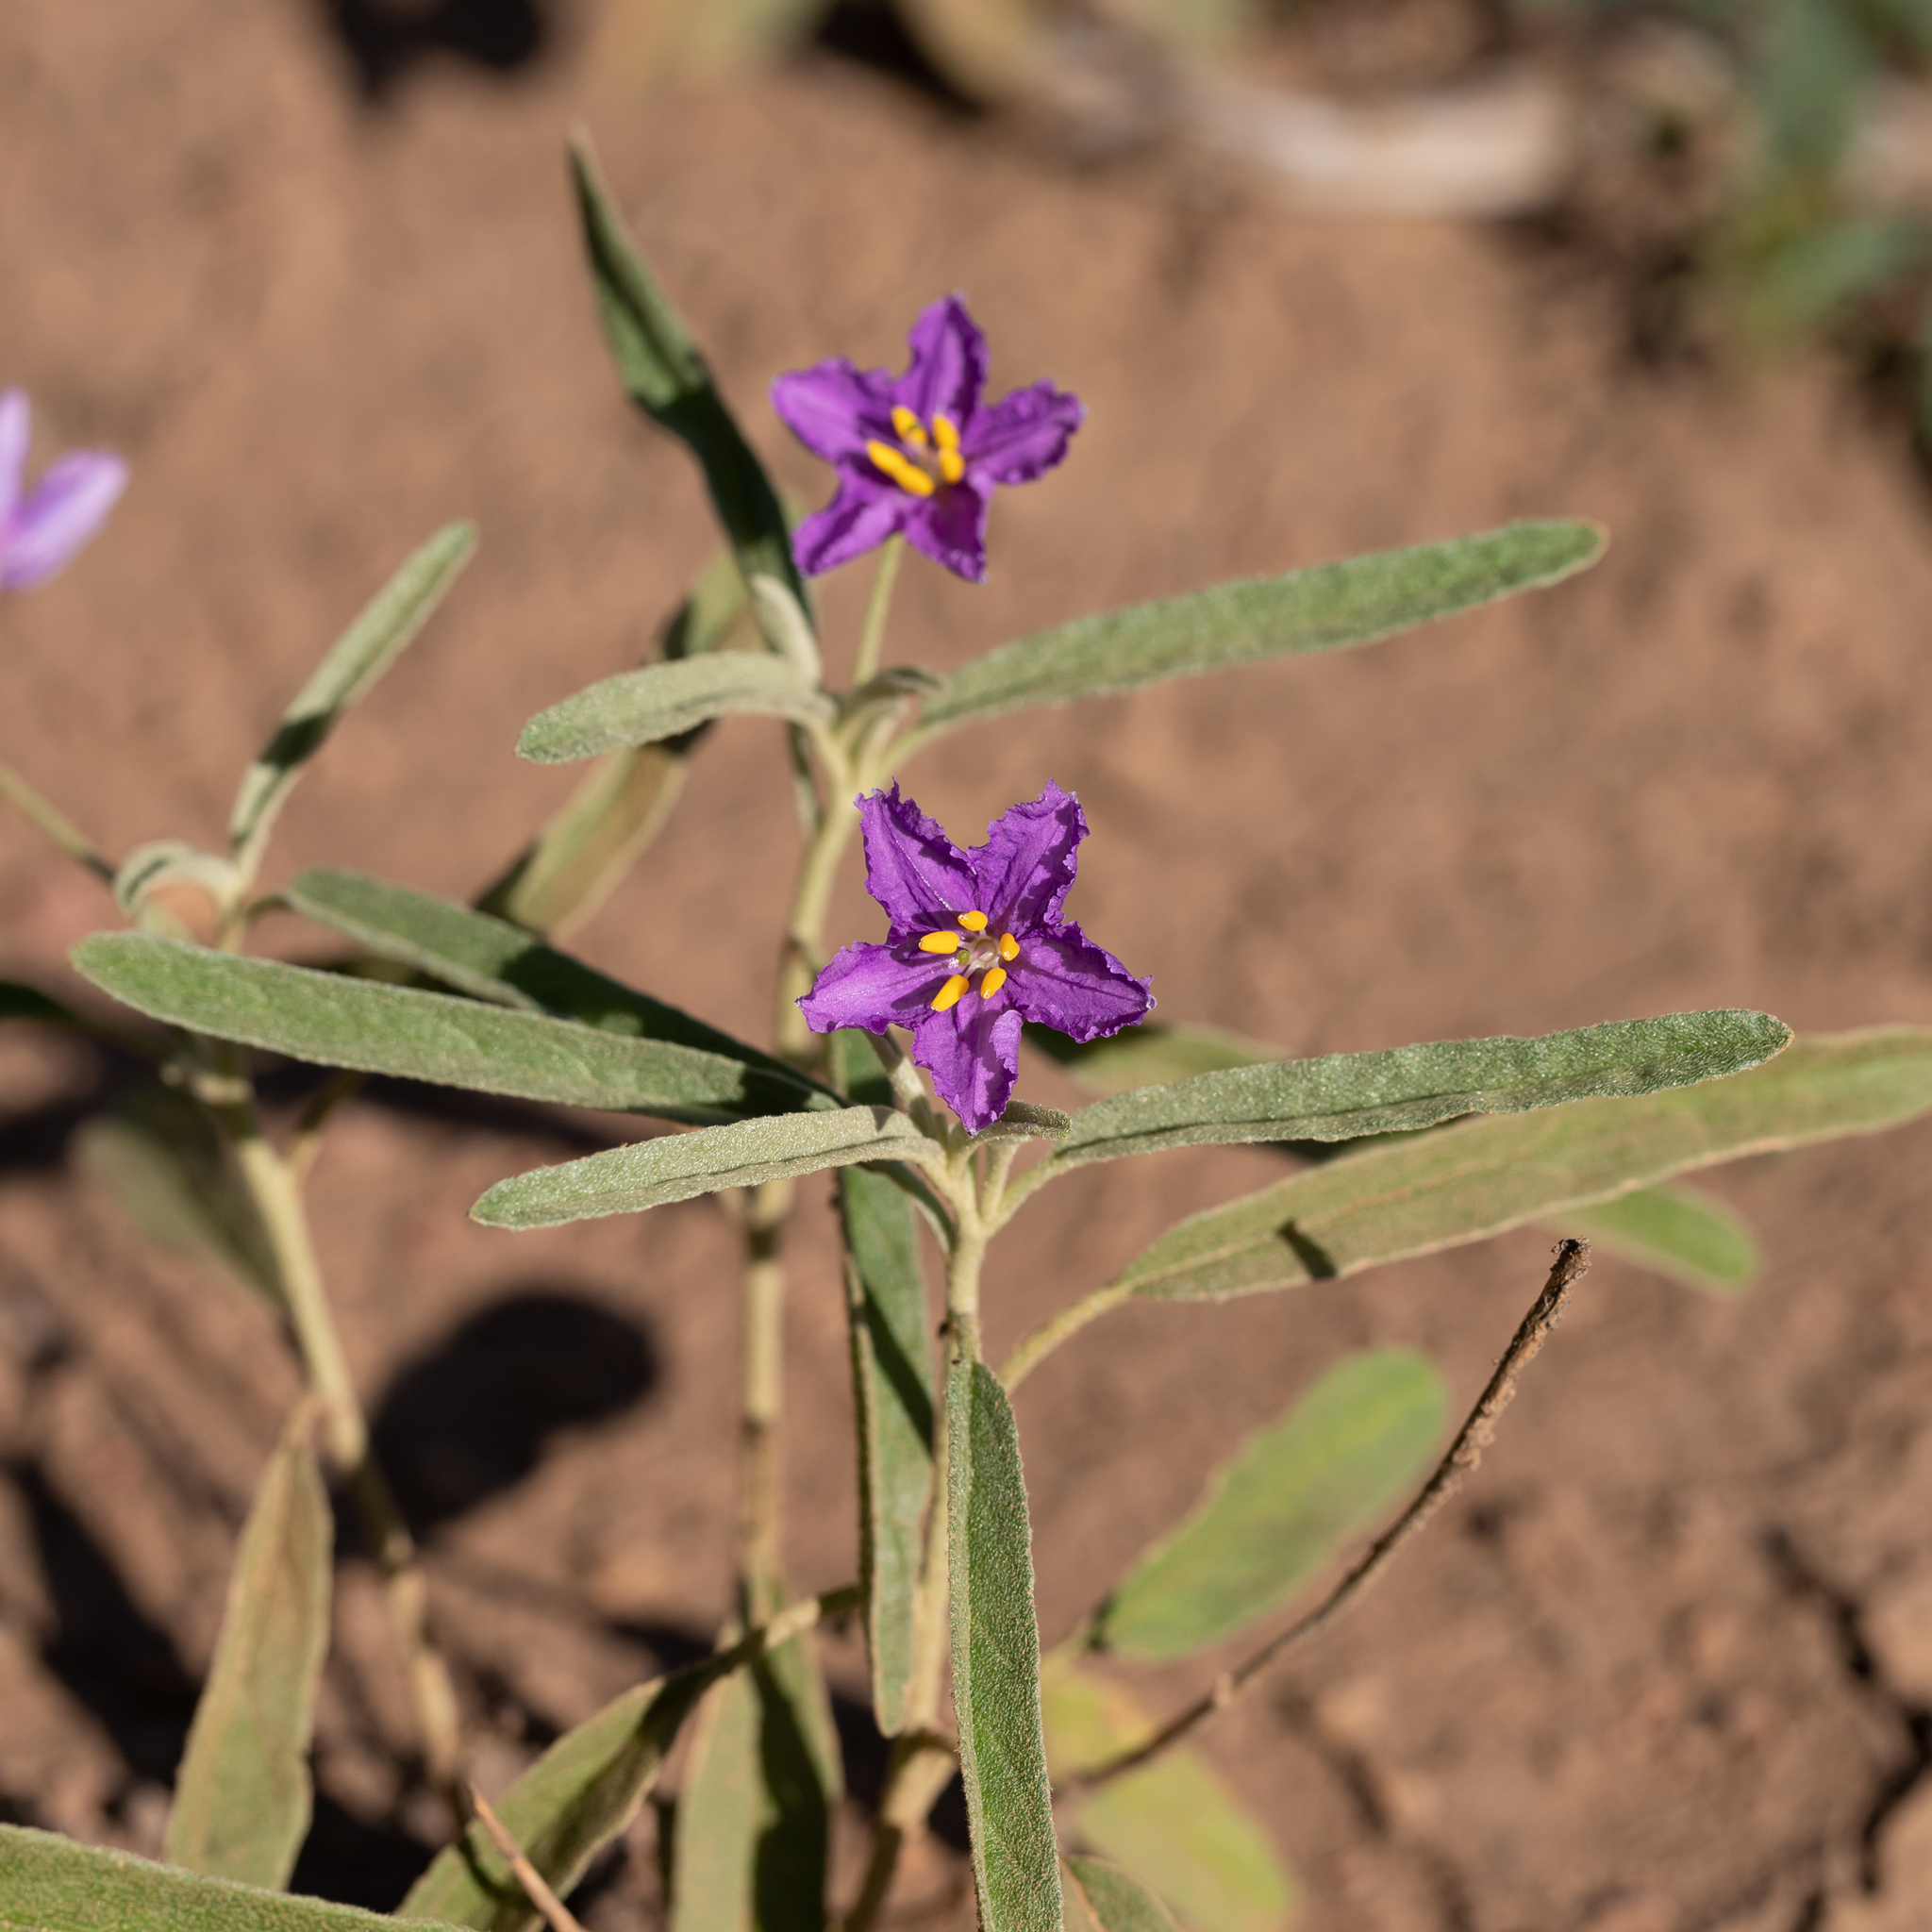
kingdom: Plantae
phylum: Tracheophyta
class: Magnoliopsida
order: Solanales
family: Solanaceae
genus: Solanum
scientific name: Solanum esuriale
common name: Wild tomato
